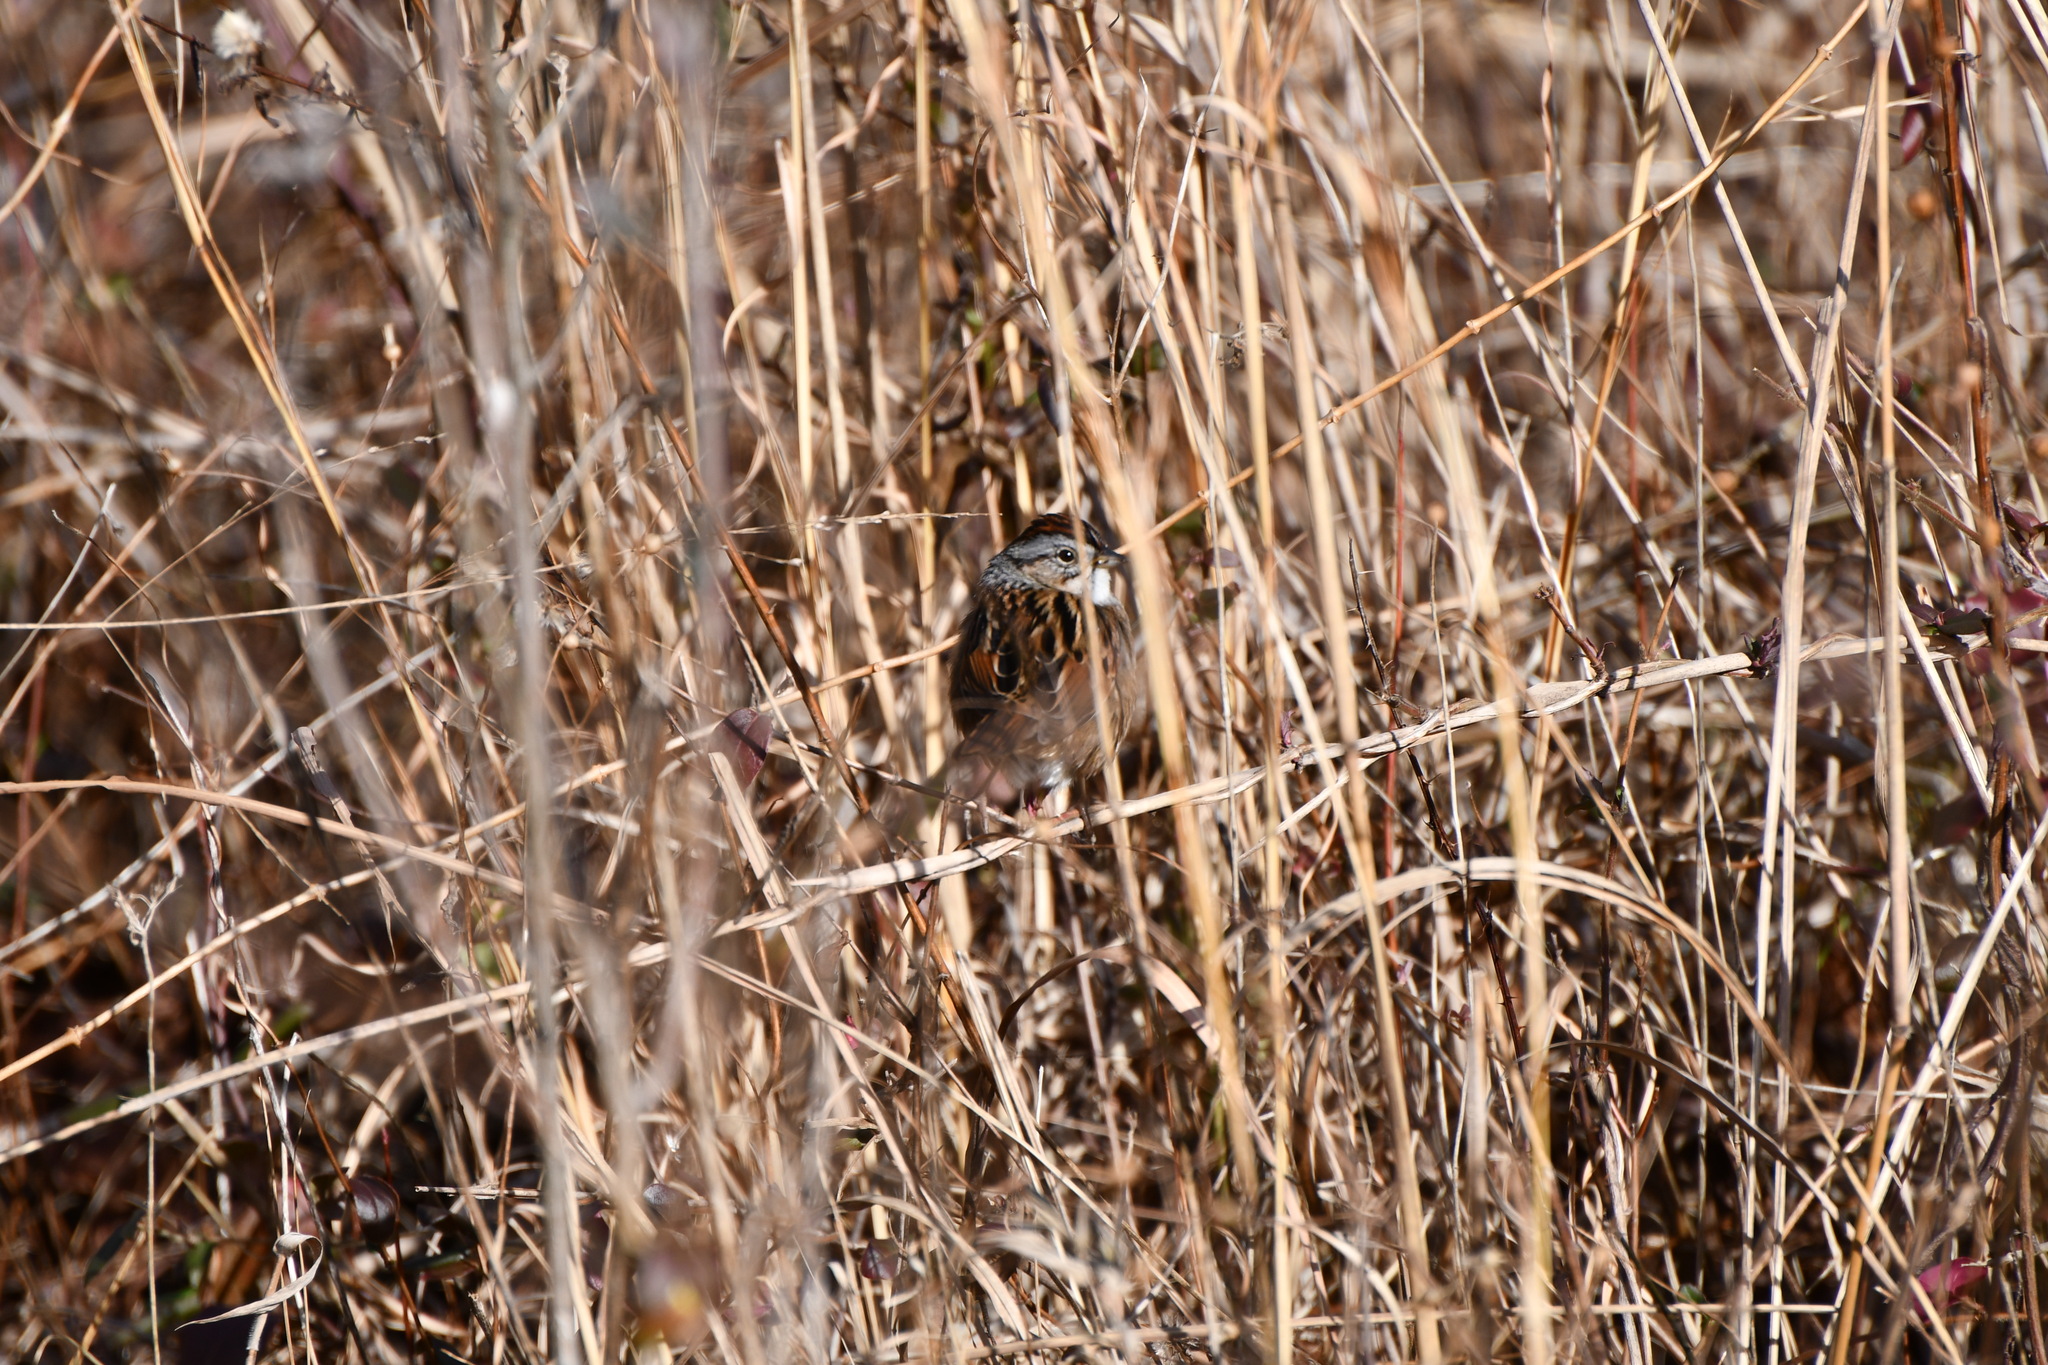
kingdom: Animalia
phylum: Chordata
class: Aves
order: Passeriformes
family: Passerellidae
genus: Melospiza
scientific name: Melospiza georgiana
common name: Swamp sparrow
